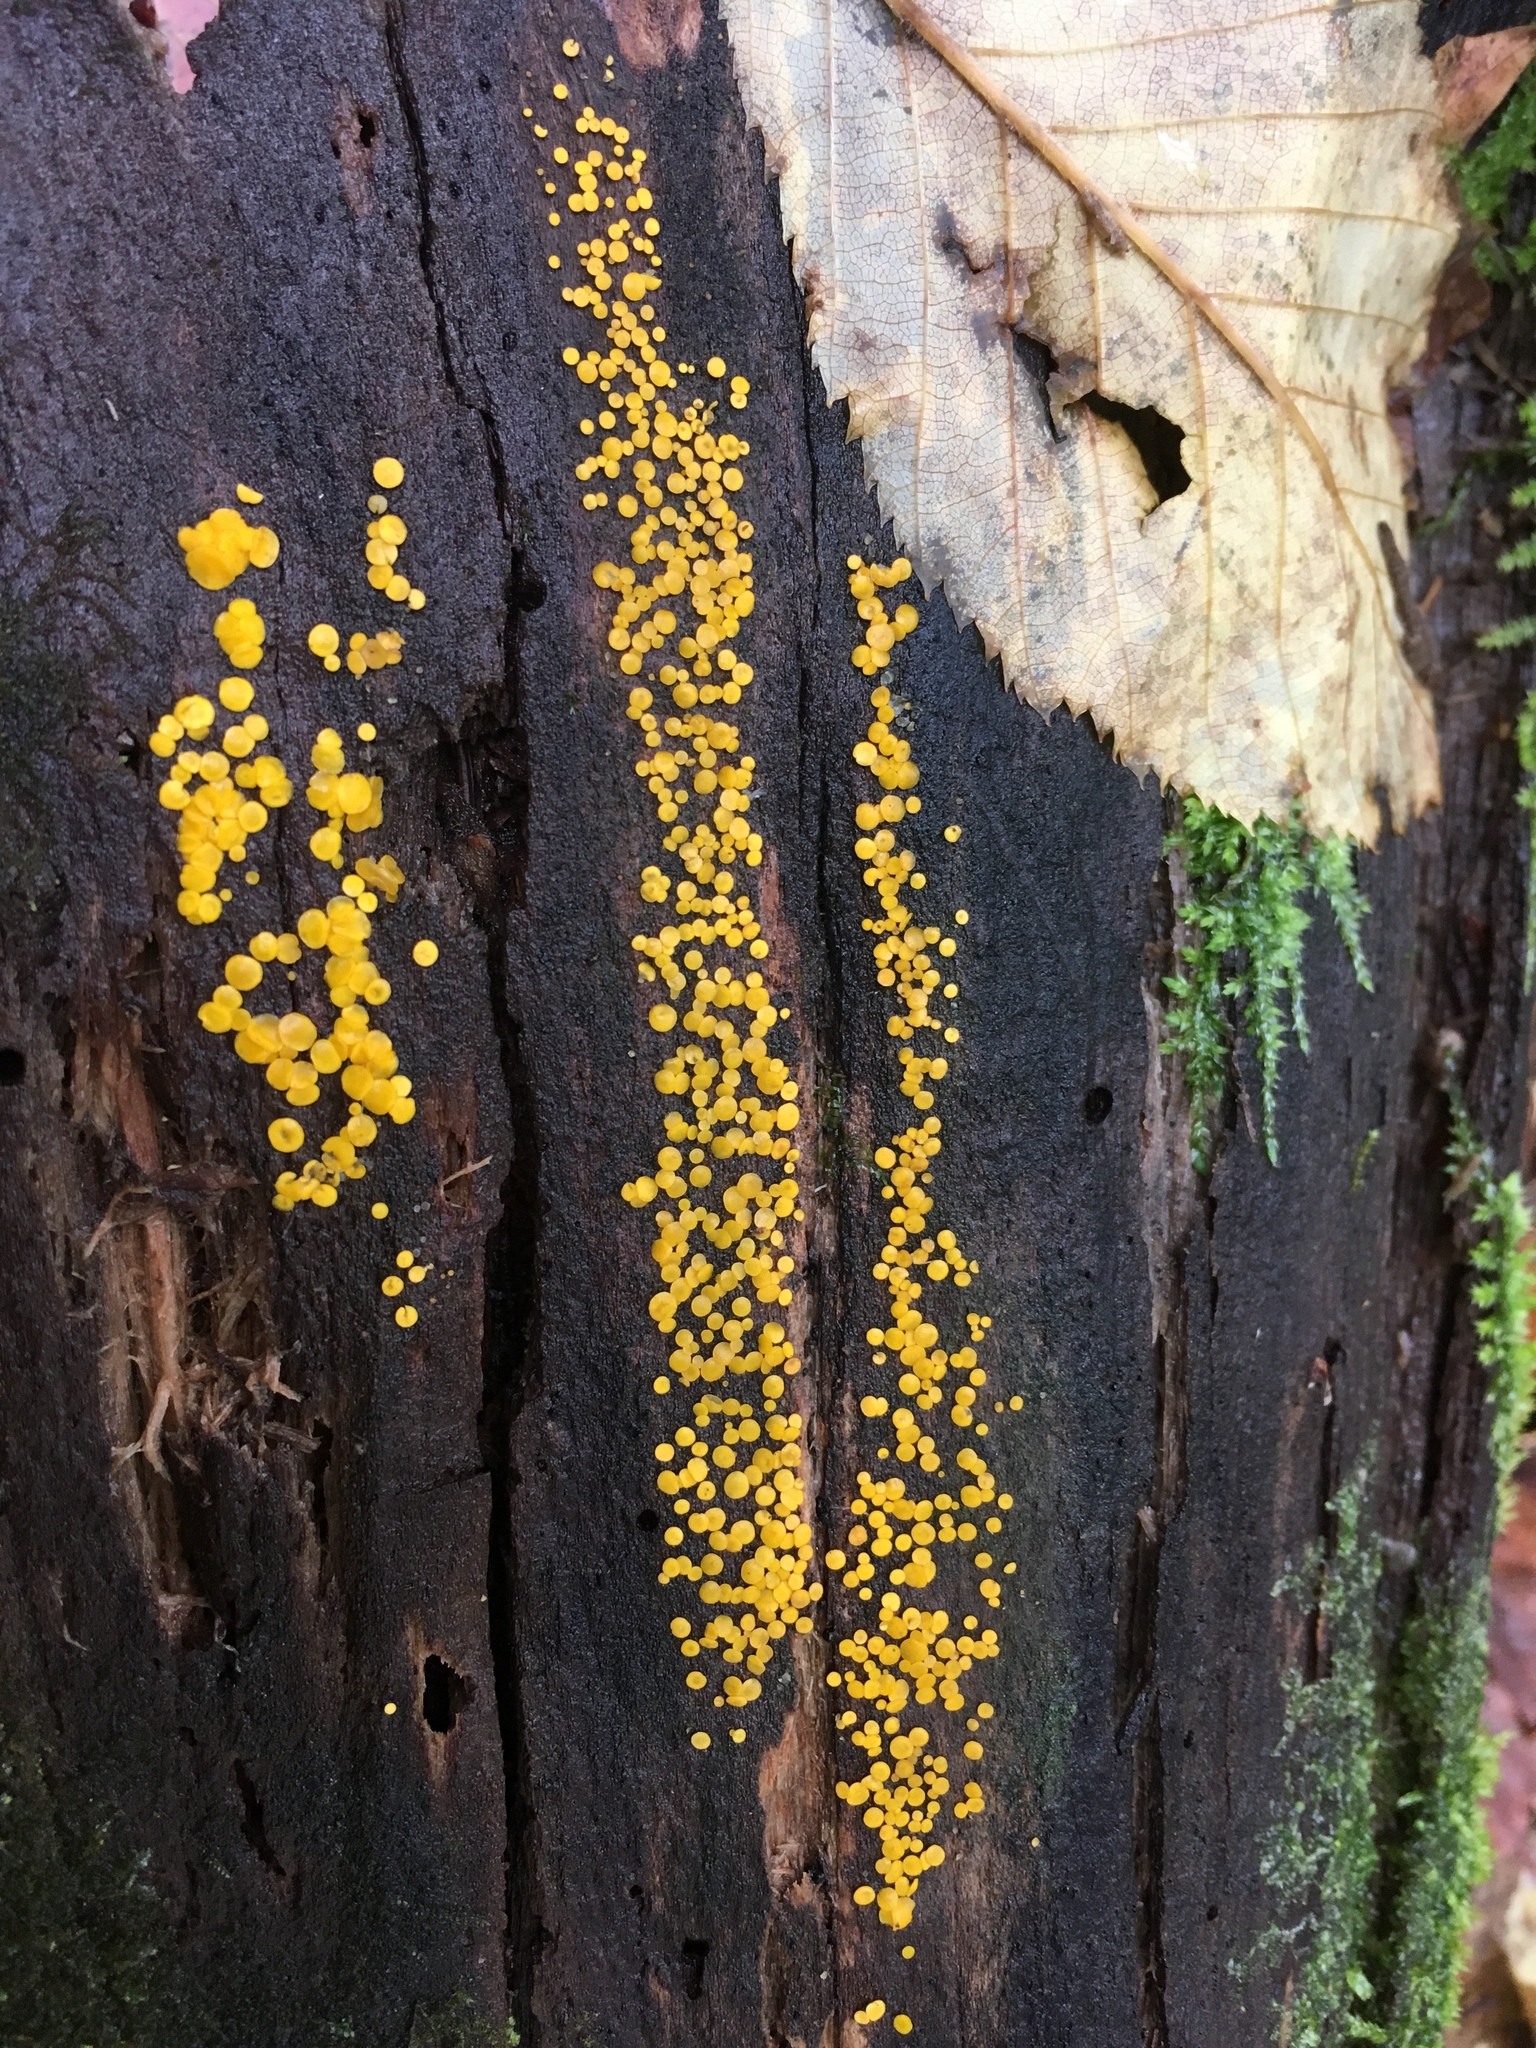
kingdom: Fungi
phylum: Ascomycota
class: Leotiomycetes
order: Helotiales
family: Pezizellaceae
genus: Calycina
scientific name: Calycina citrina
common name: Yellow fairy cups
